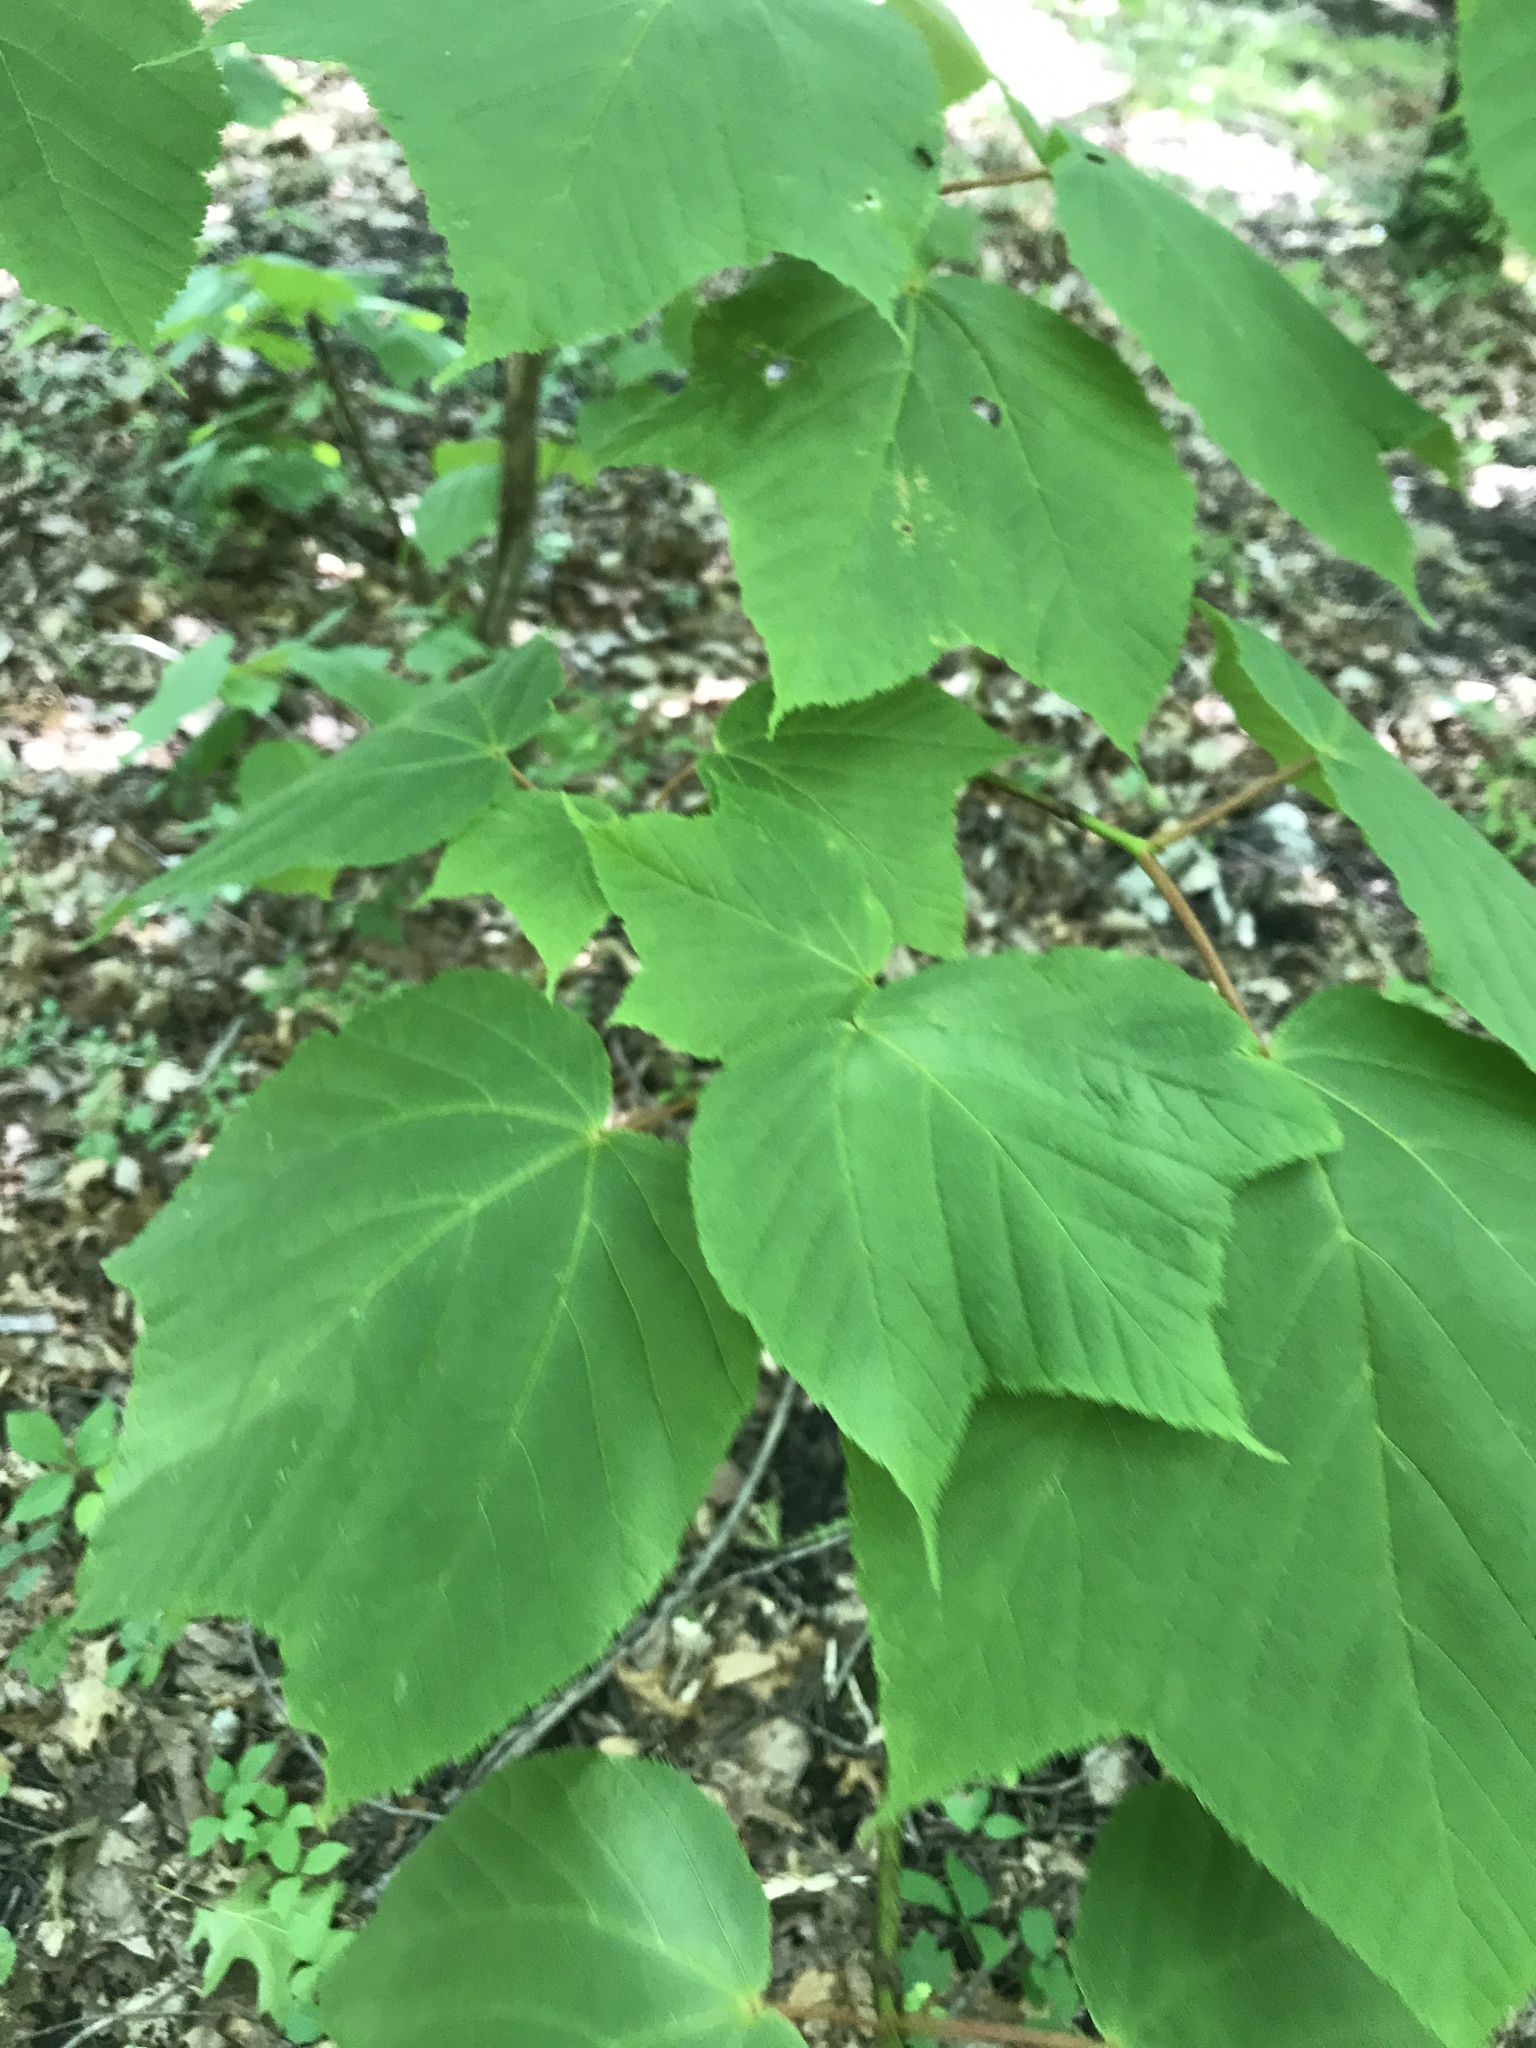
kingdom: Plantae
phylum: Tracheophyta
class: Magnoliopsida
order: Sapindales
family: Sapindaceae
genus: Acer
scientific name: Acer pensylvanicum
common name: Moosewood
